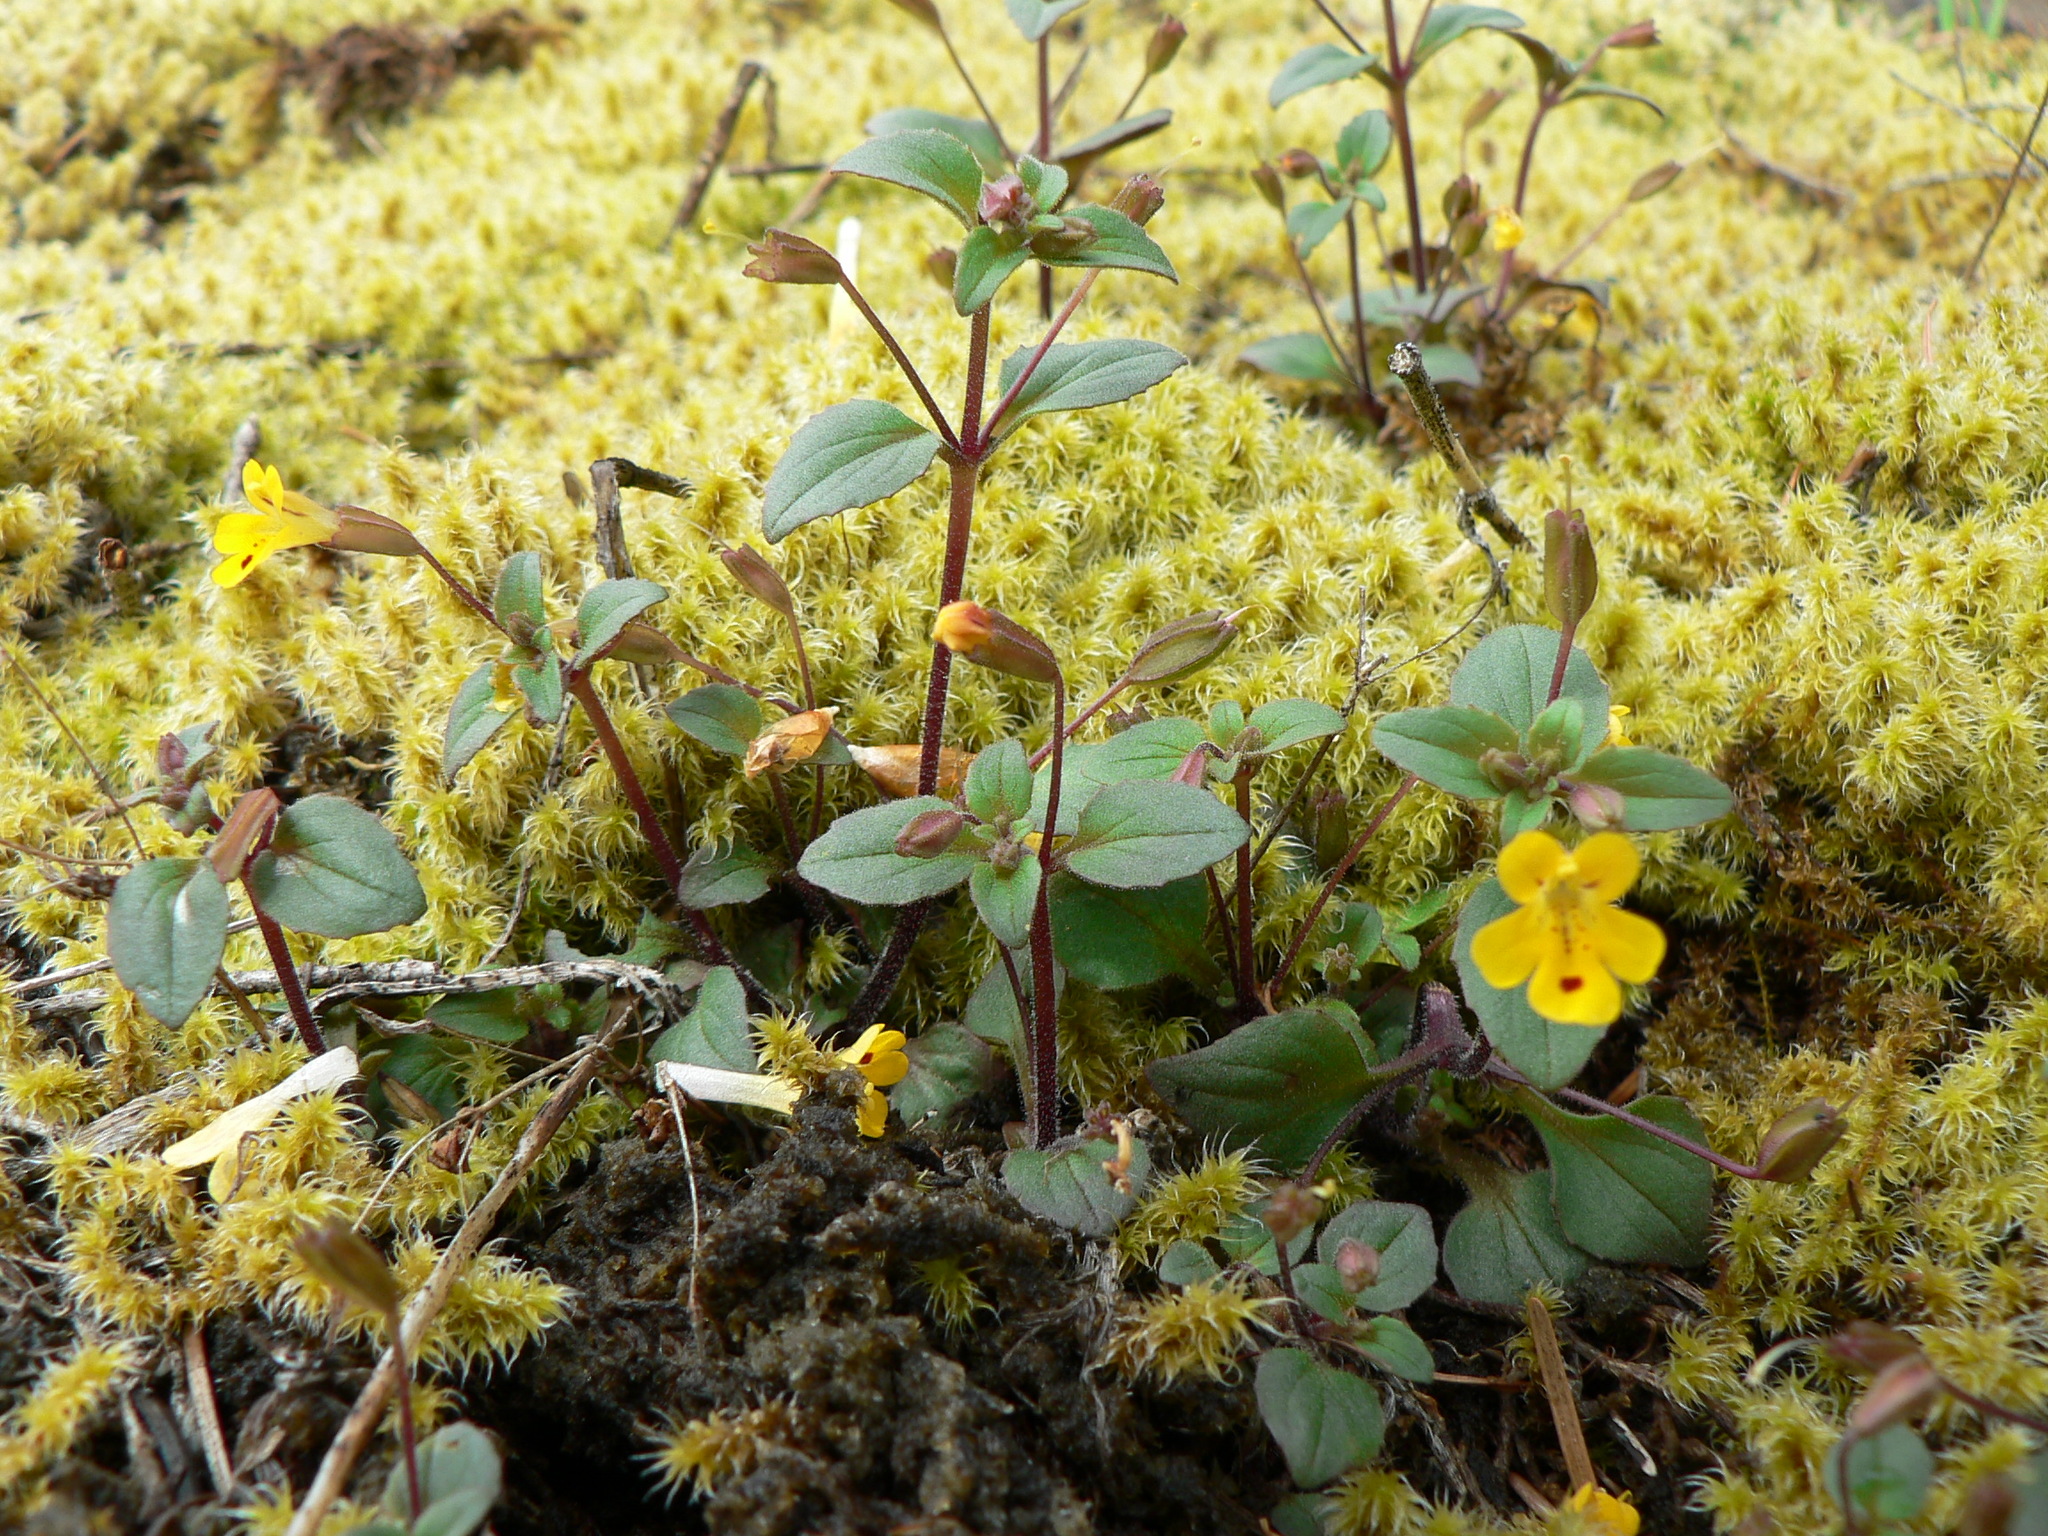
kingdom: Plantae
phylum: Tracheophyta
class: Magnoliopsida
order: Lamiales
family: Phrymaceae
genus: Erythranthe
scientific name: Erythranthe alsinoides
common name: Chickweed monkeyflower
